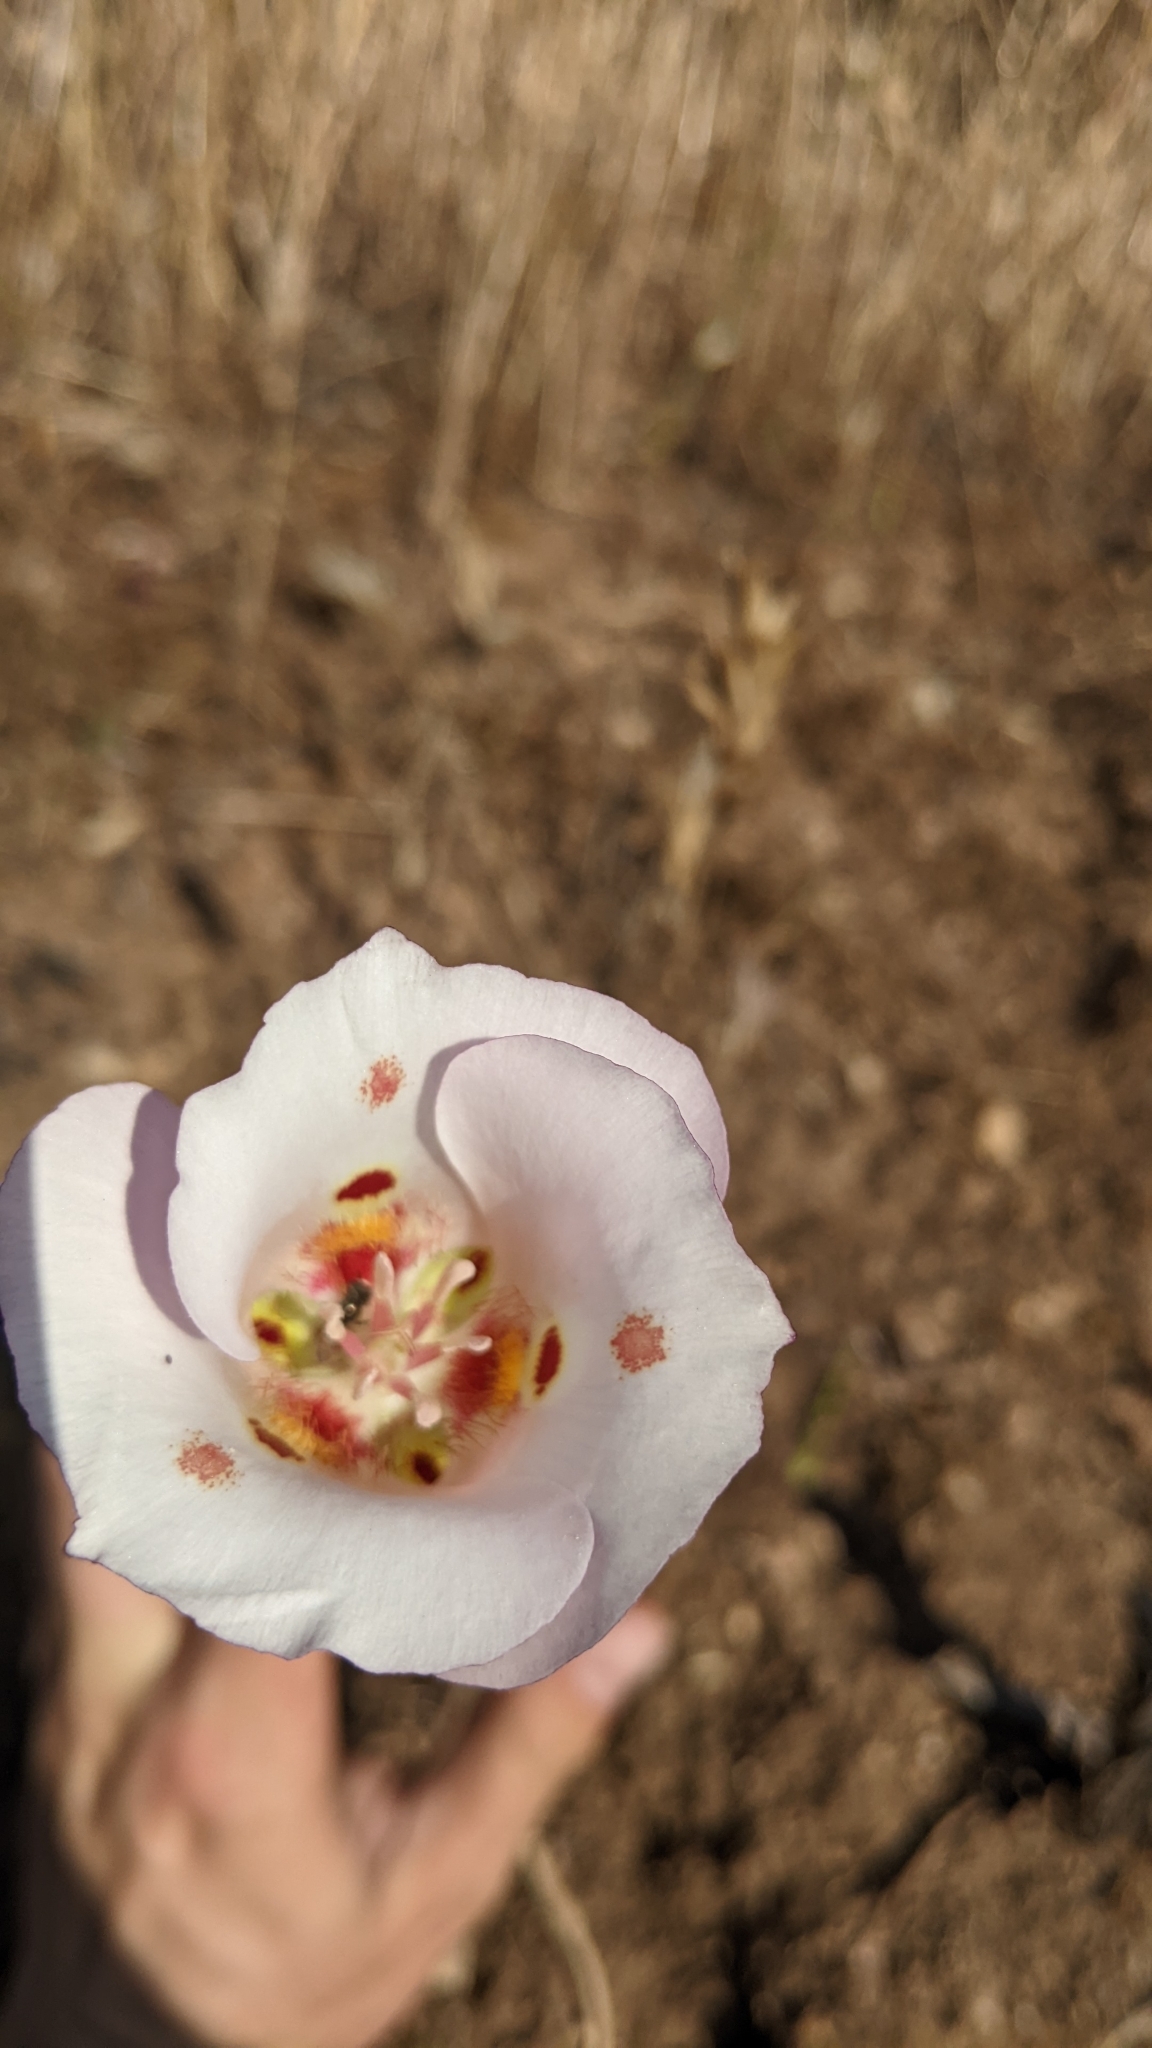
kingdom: Plantae
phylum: Tracheophyta
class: Liliopsida
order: Liliales
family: Liliaceae
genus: Calochortus
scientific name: Calochortus venustus
